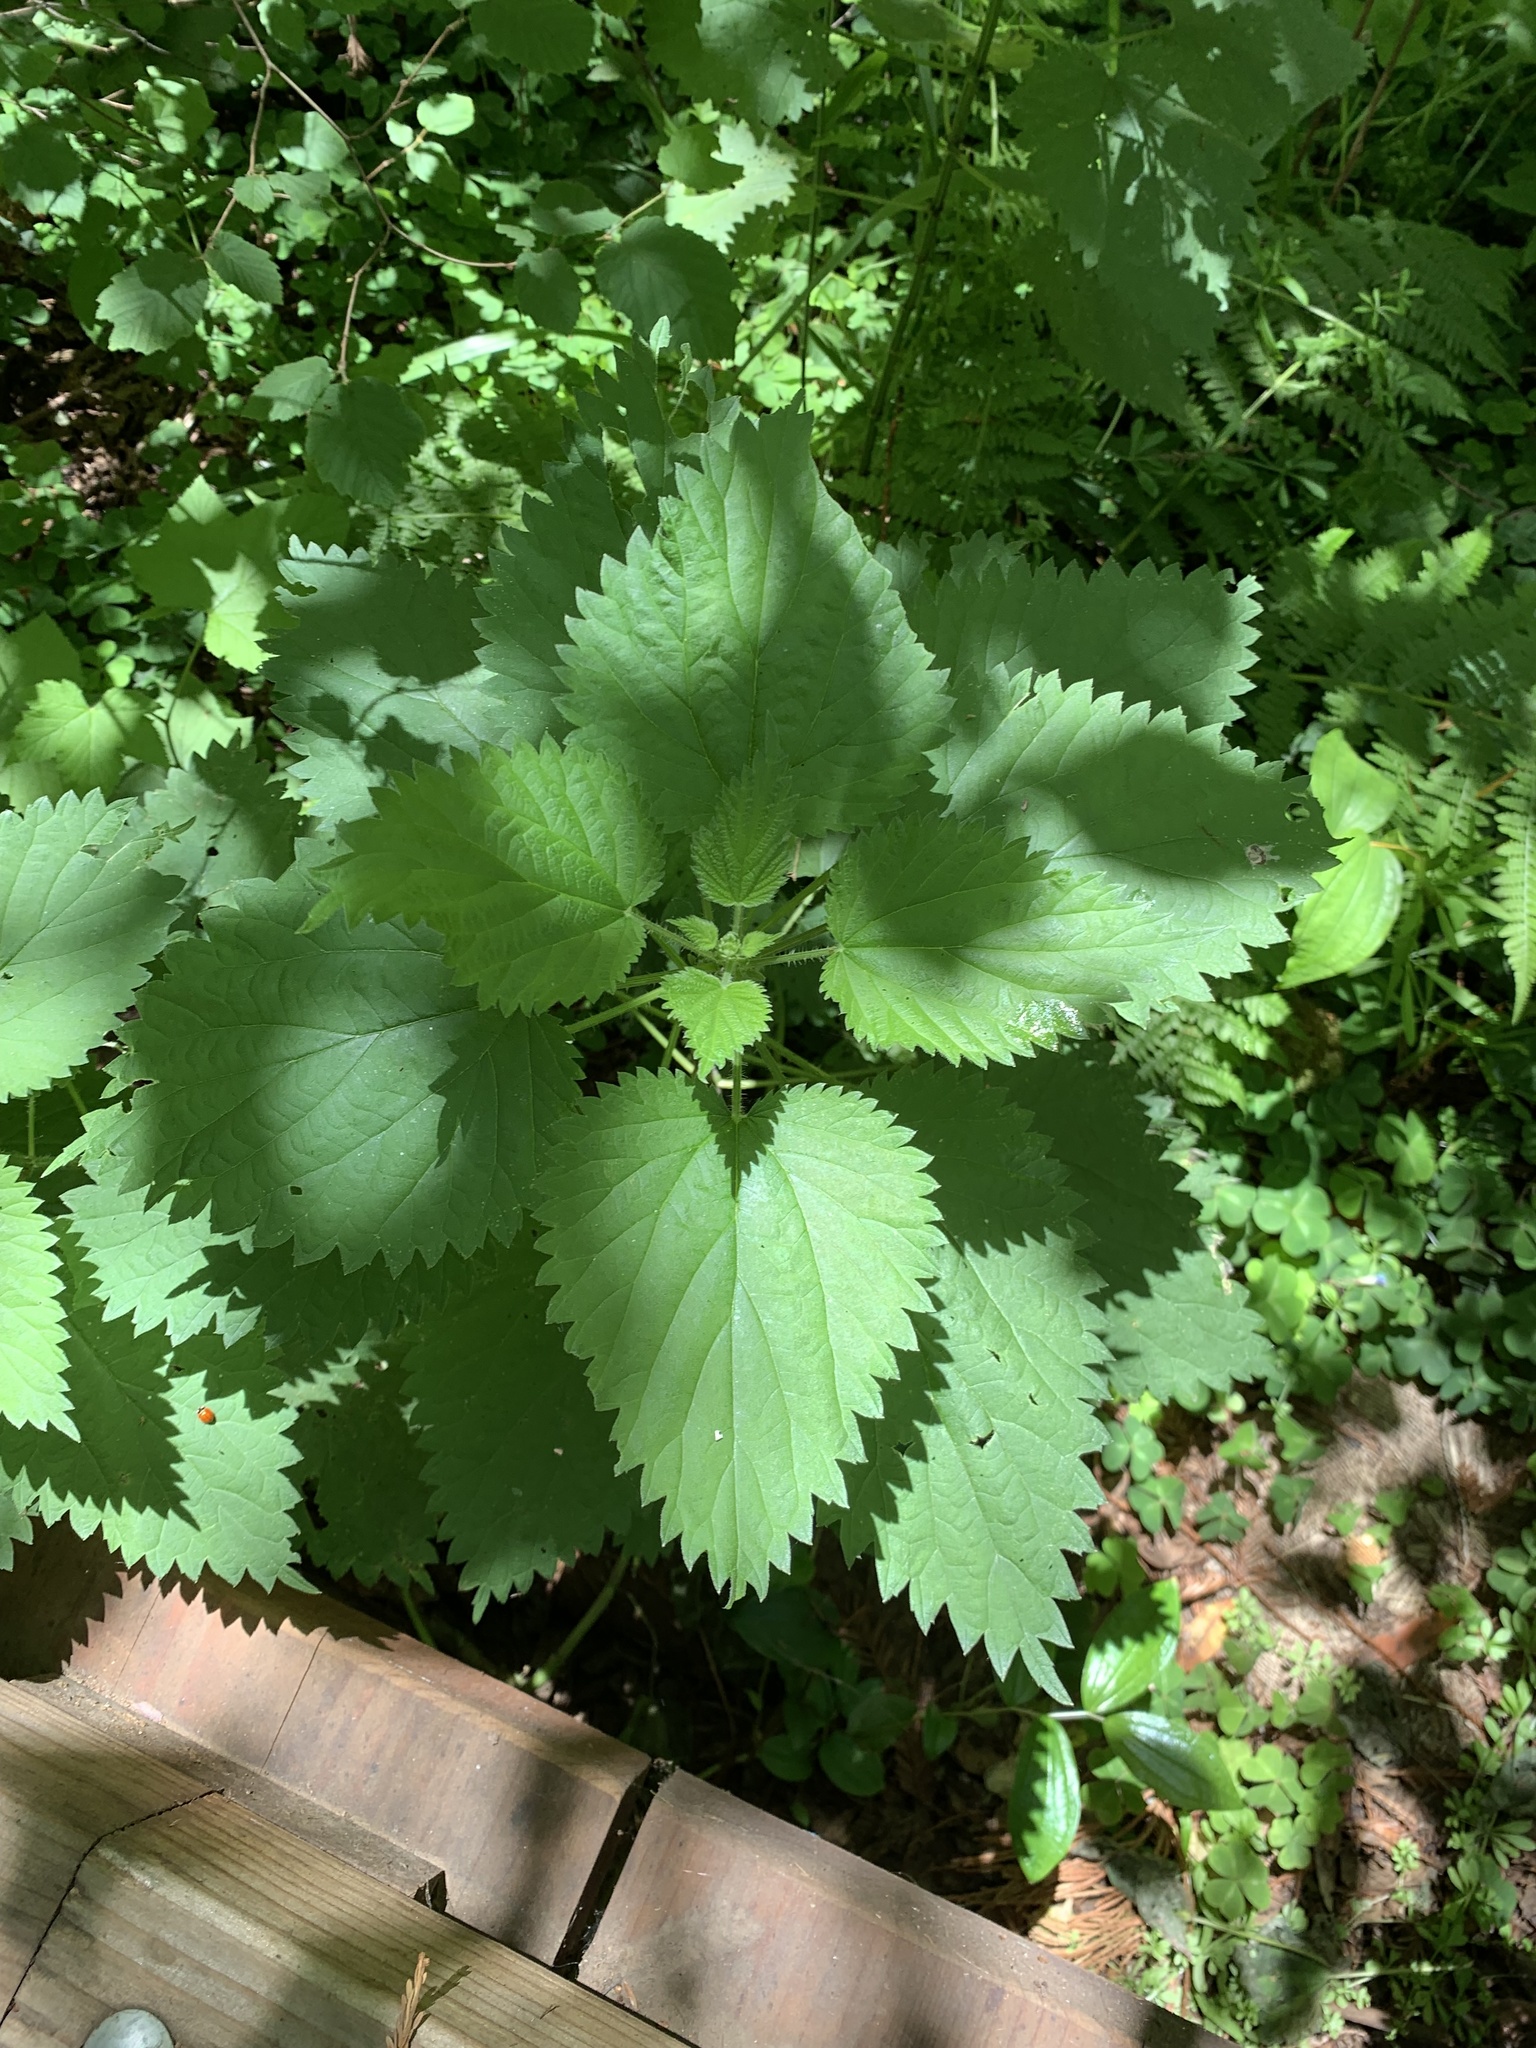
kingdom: Plantae
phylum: Tracheophyta
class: Magnoliopsida
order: Rosales
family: Urticaceae
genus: Urtica
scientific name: Urtica gracilis
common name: Slender stinging nettle
